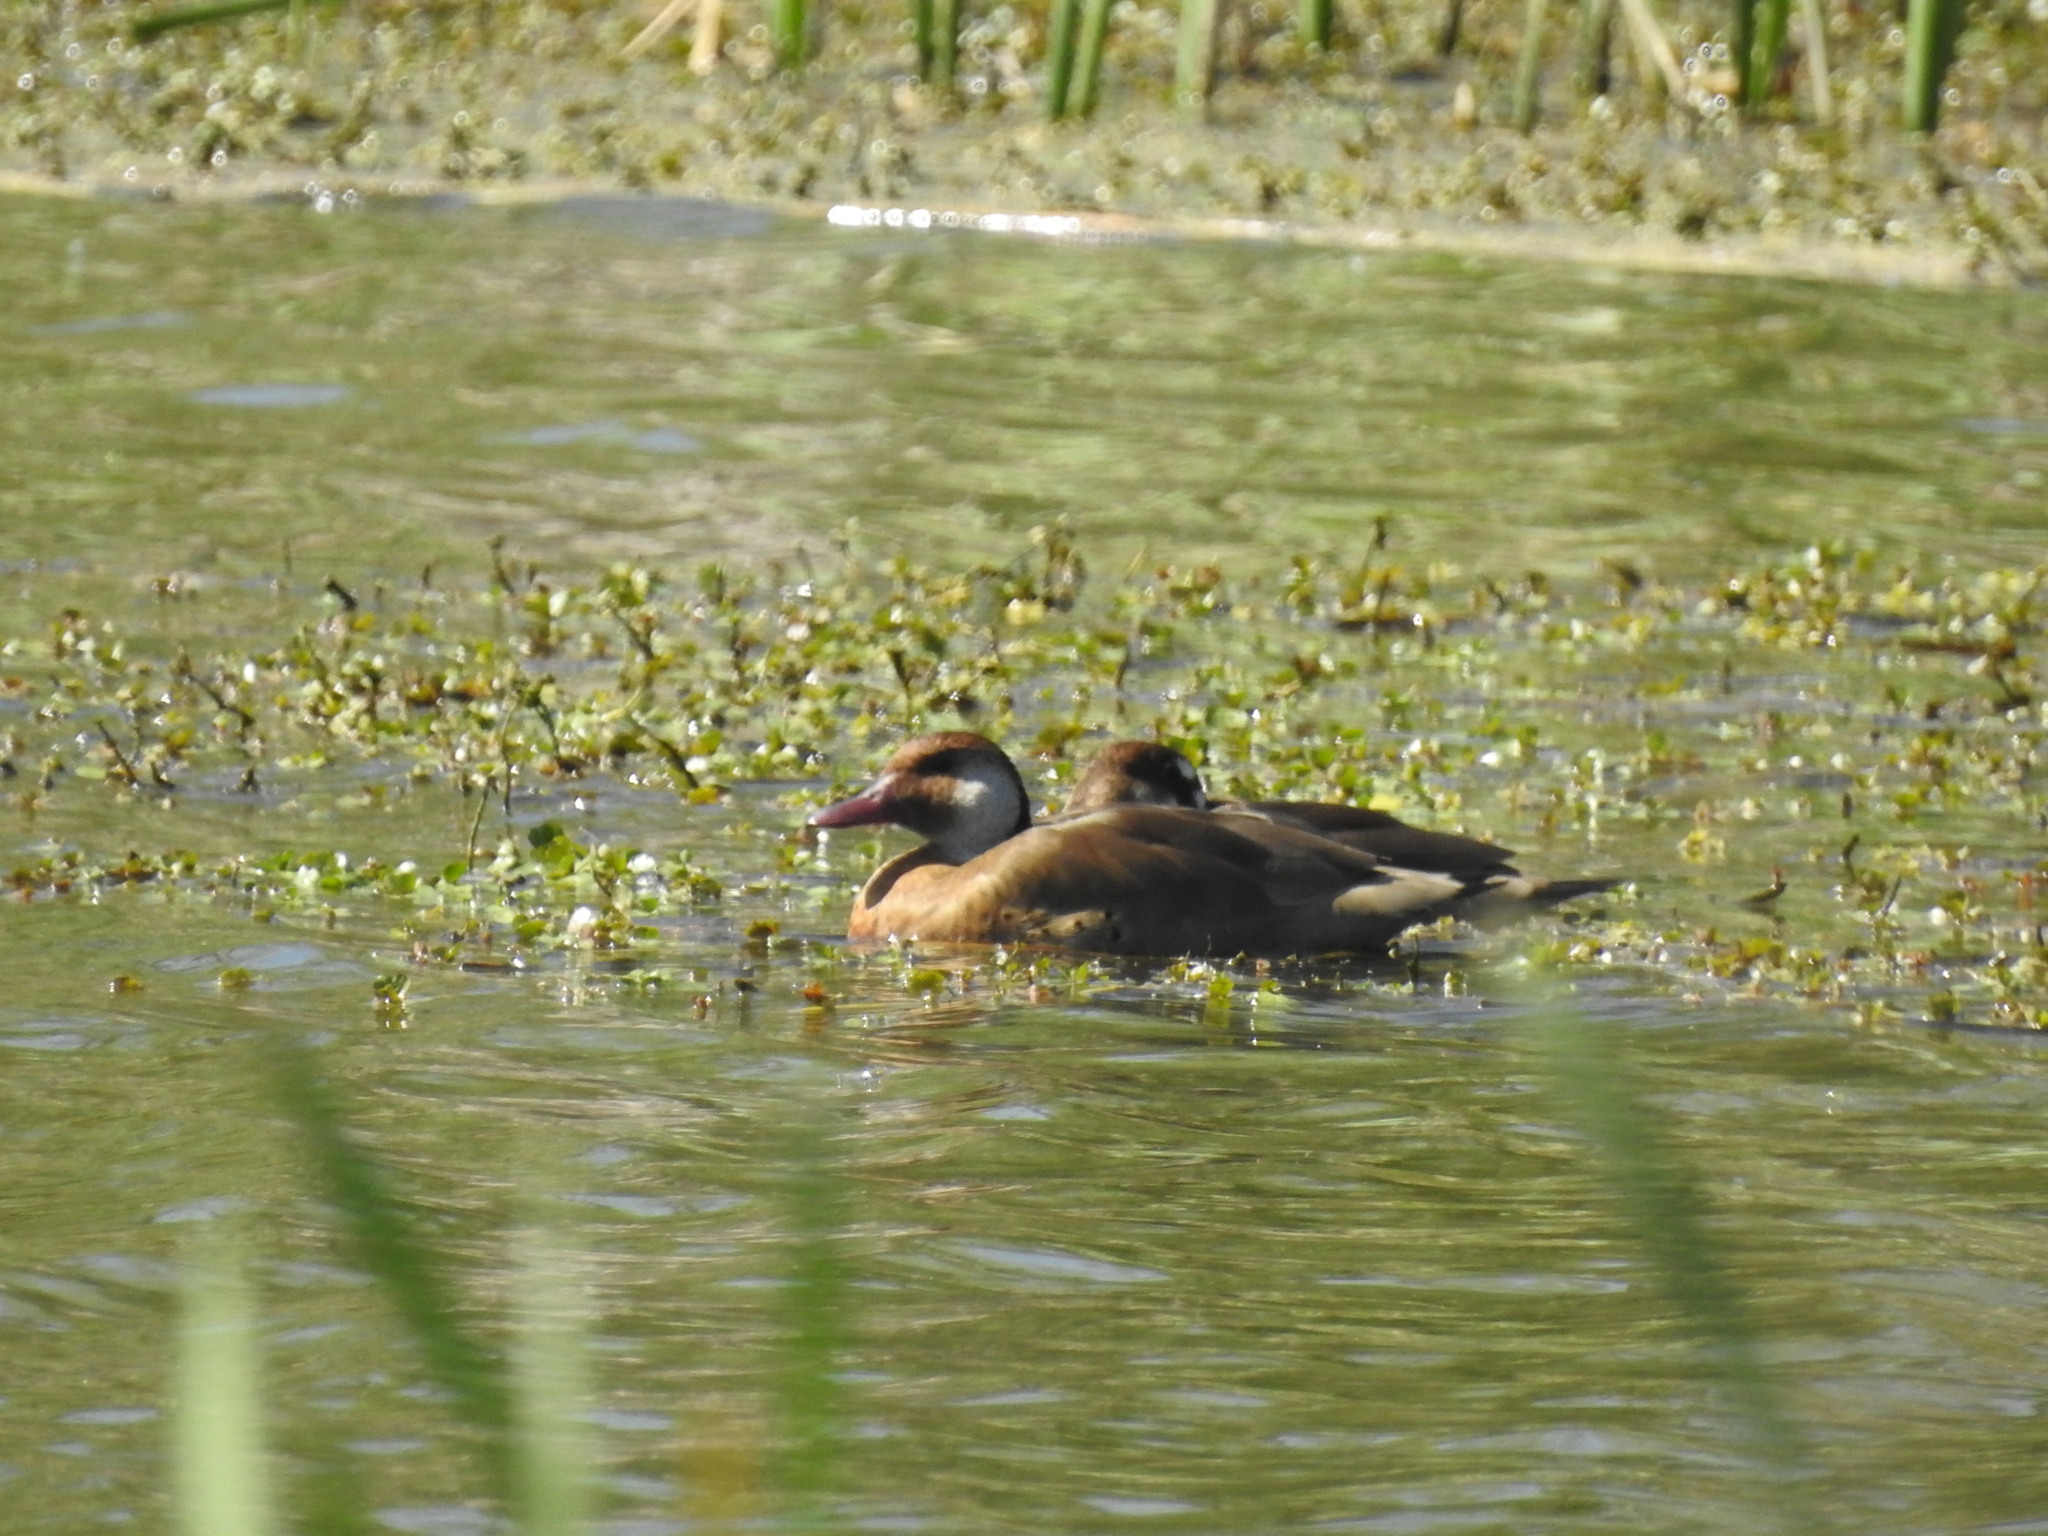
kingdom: Animalia
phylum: Chordata
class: Aves
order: Anseriformes
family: Anatidae
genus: Amazonetta
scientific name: Amazonetta brasiliensis
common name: Brazilian teal
